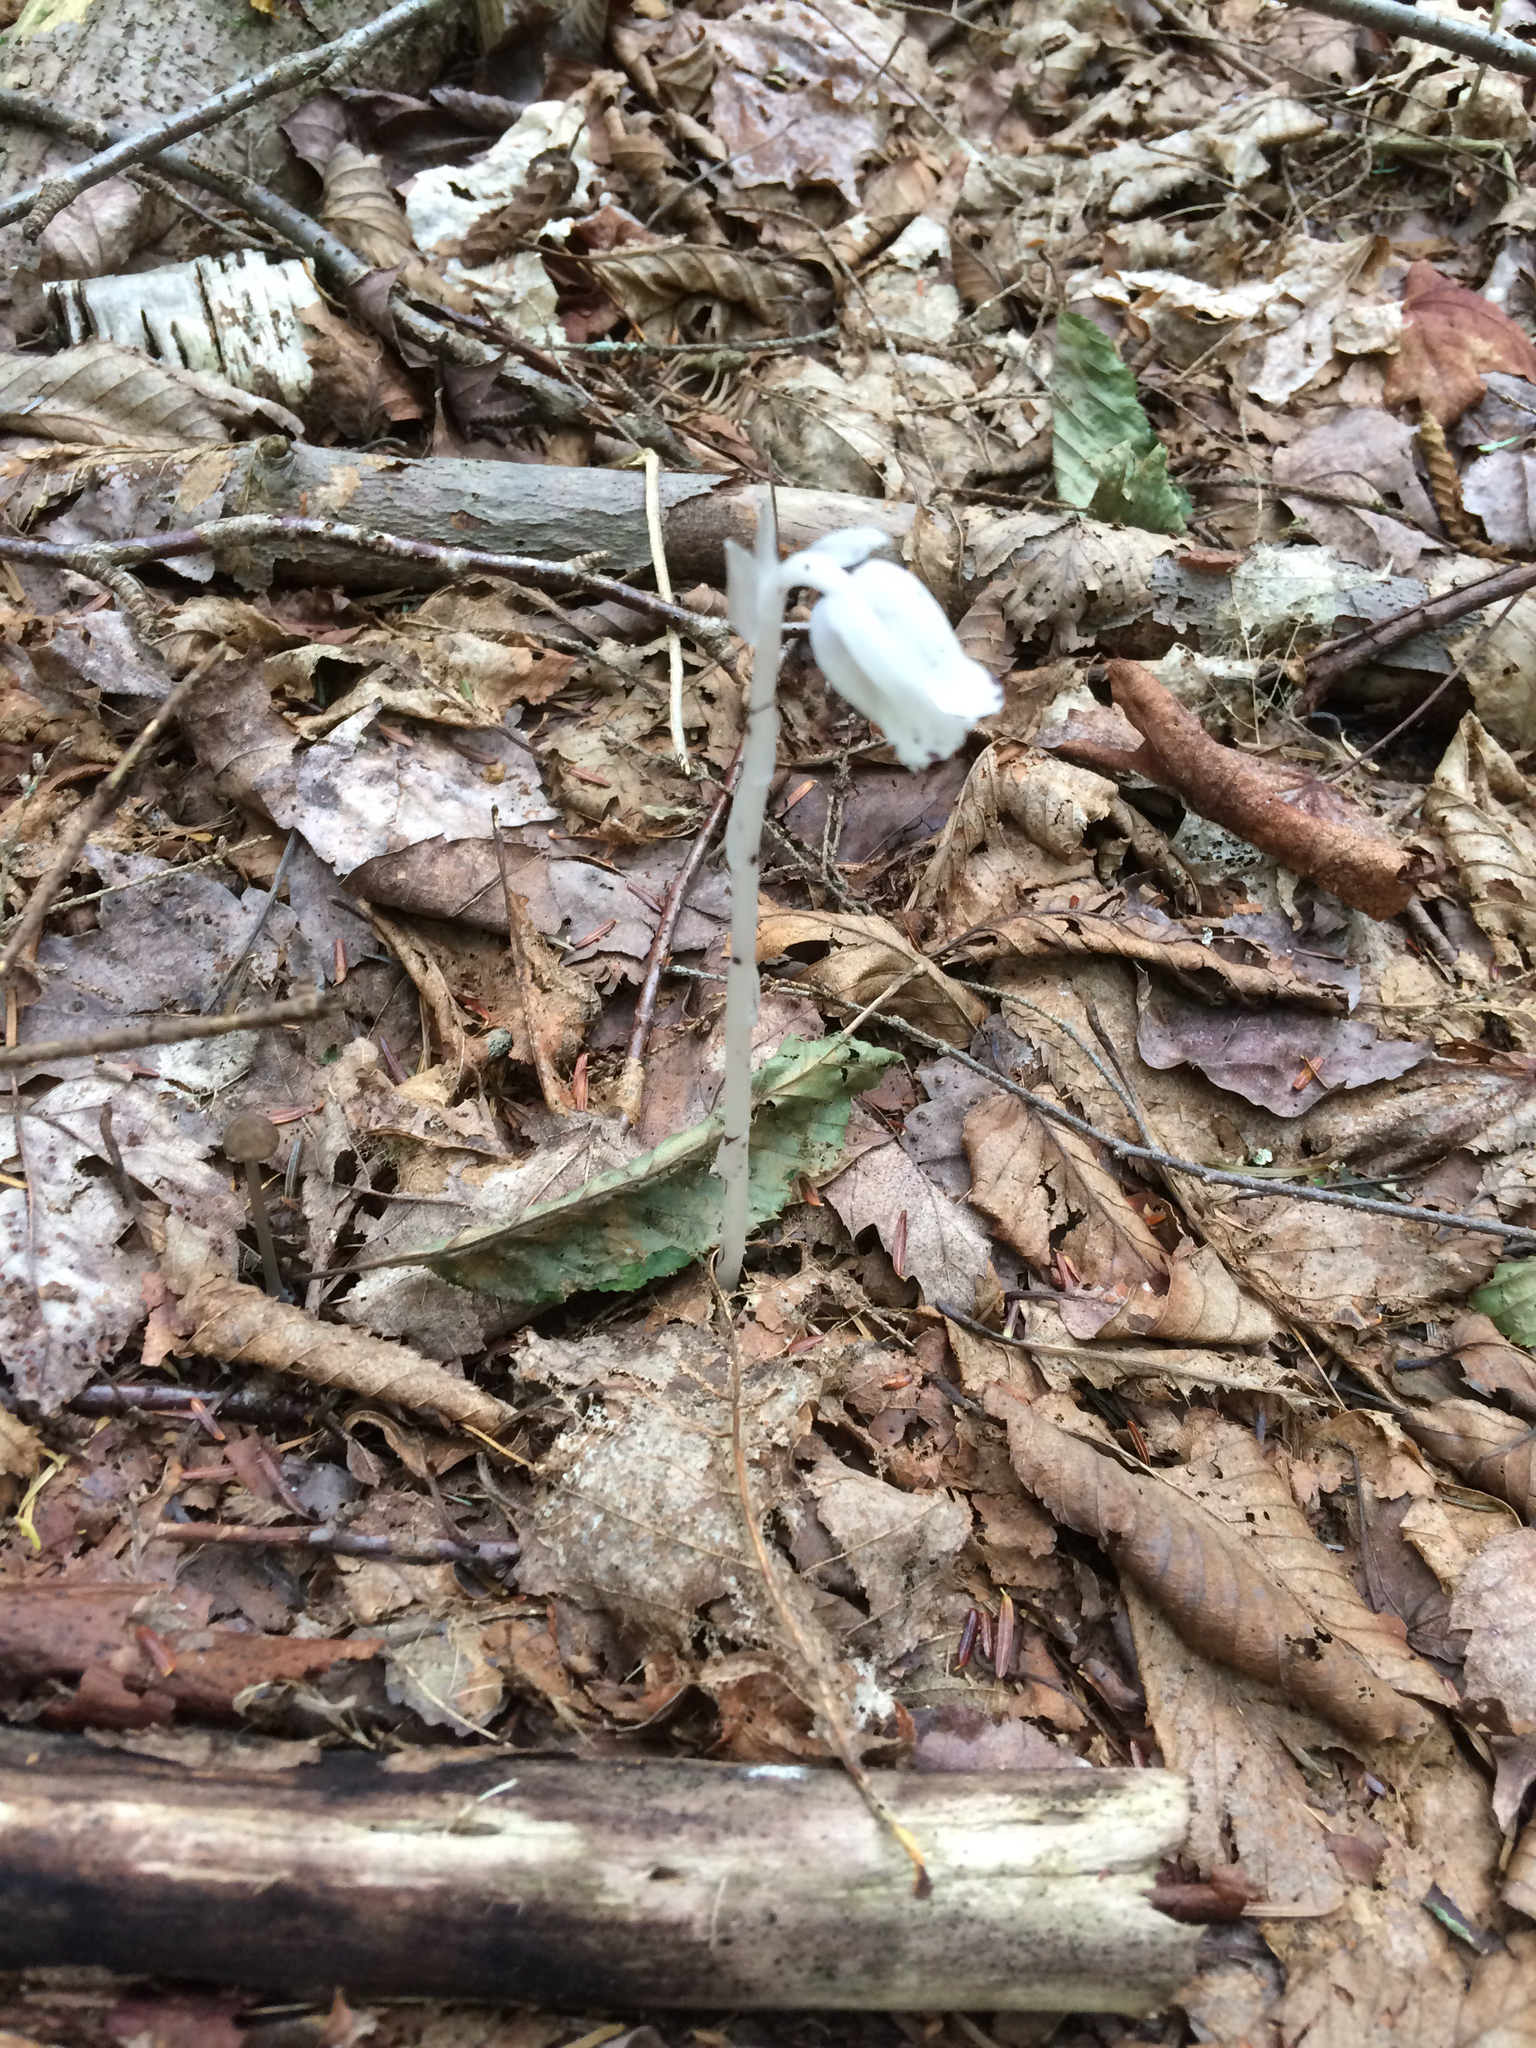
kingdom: Plantae
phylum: Tracheophyta
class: Magnoliopsida
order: Ericales
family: Ericaceae
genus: Monotropa
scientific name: Monotropa uniflora
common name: Convulsion root
